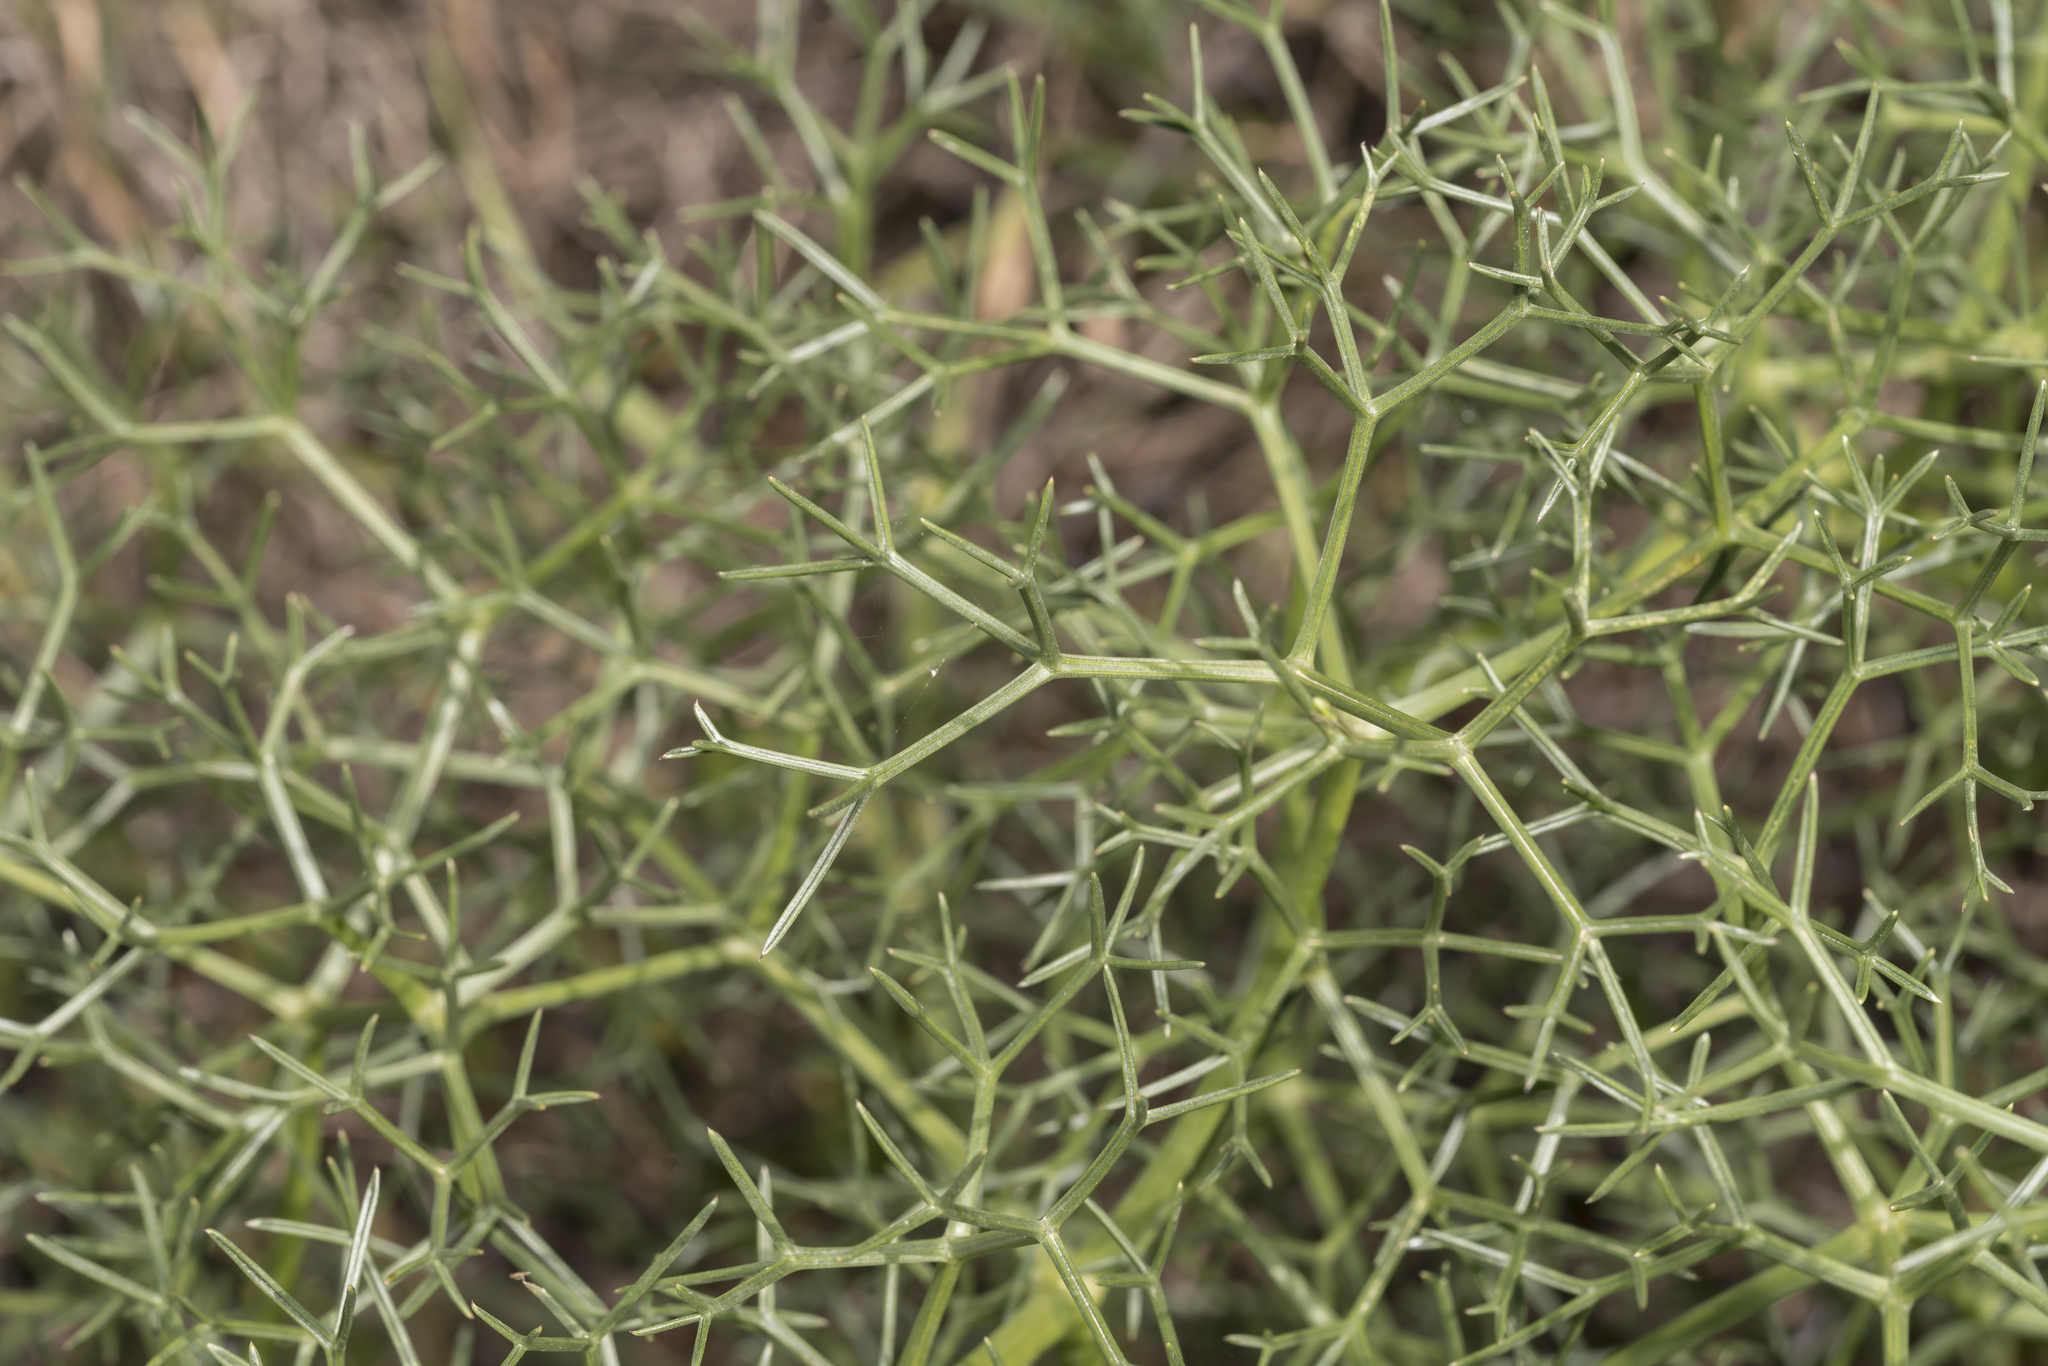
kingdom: Plantae
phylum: Tracheophyta
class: Magnoliopsida
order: Apiales
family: Apiaceae
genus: Cachrys
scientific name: Cachrys cristata
